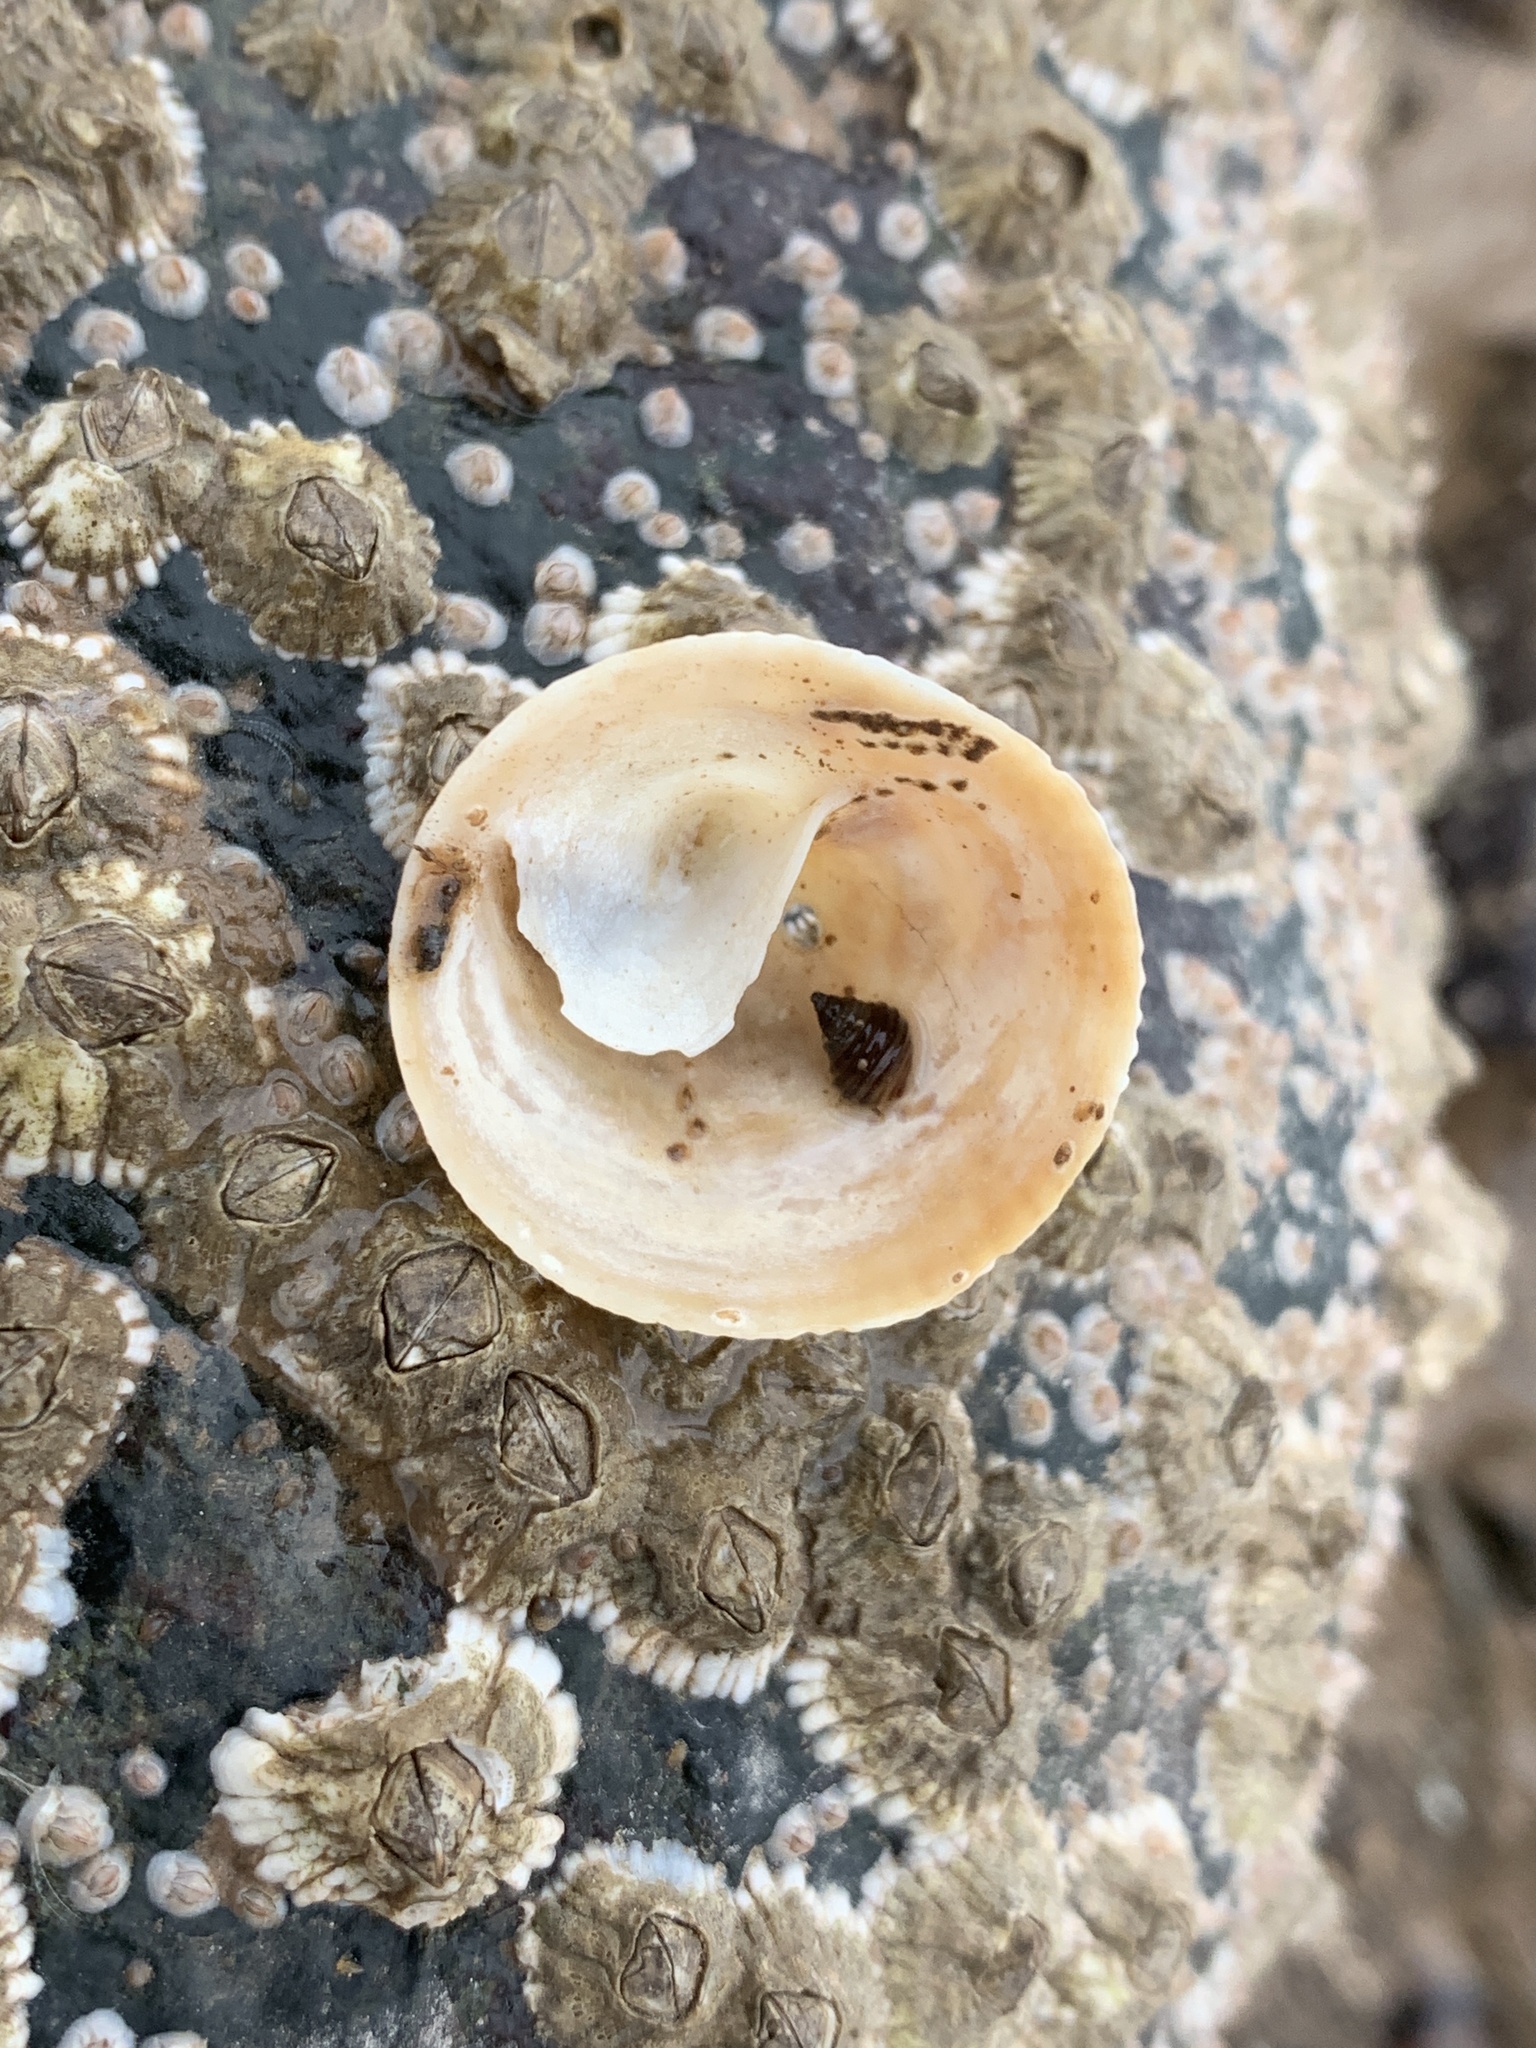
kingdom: Animalia
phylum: Mollusca
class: Gastropoda
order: Littorinimorpha
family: Calyptraeidae
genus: Crucibulum
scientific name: Crucibulum striatum
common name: Striate cup-and -saucer
